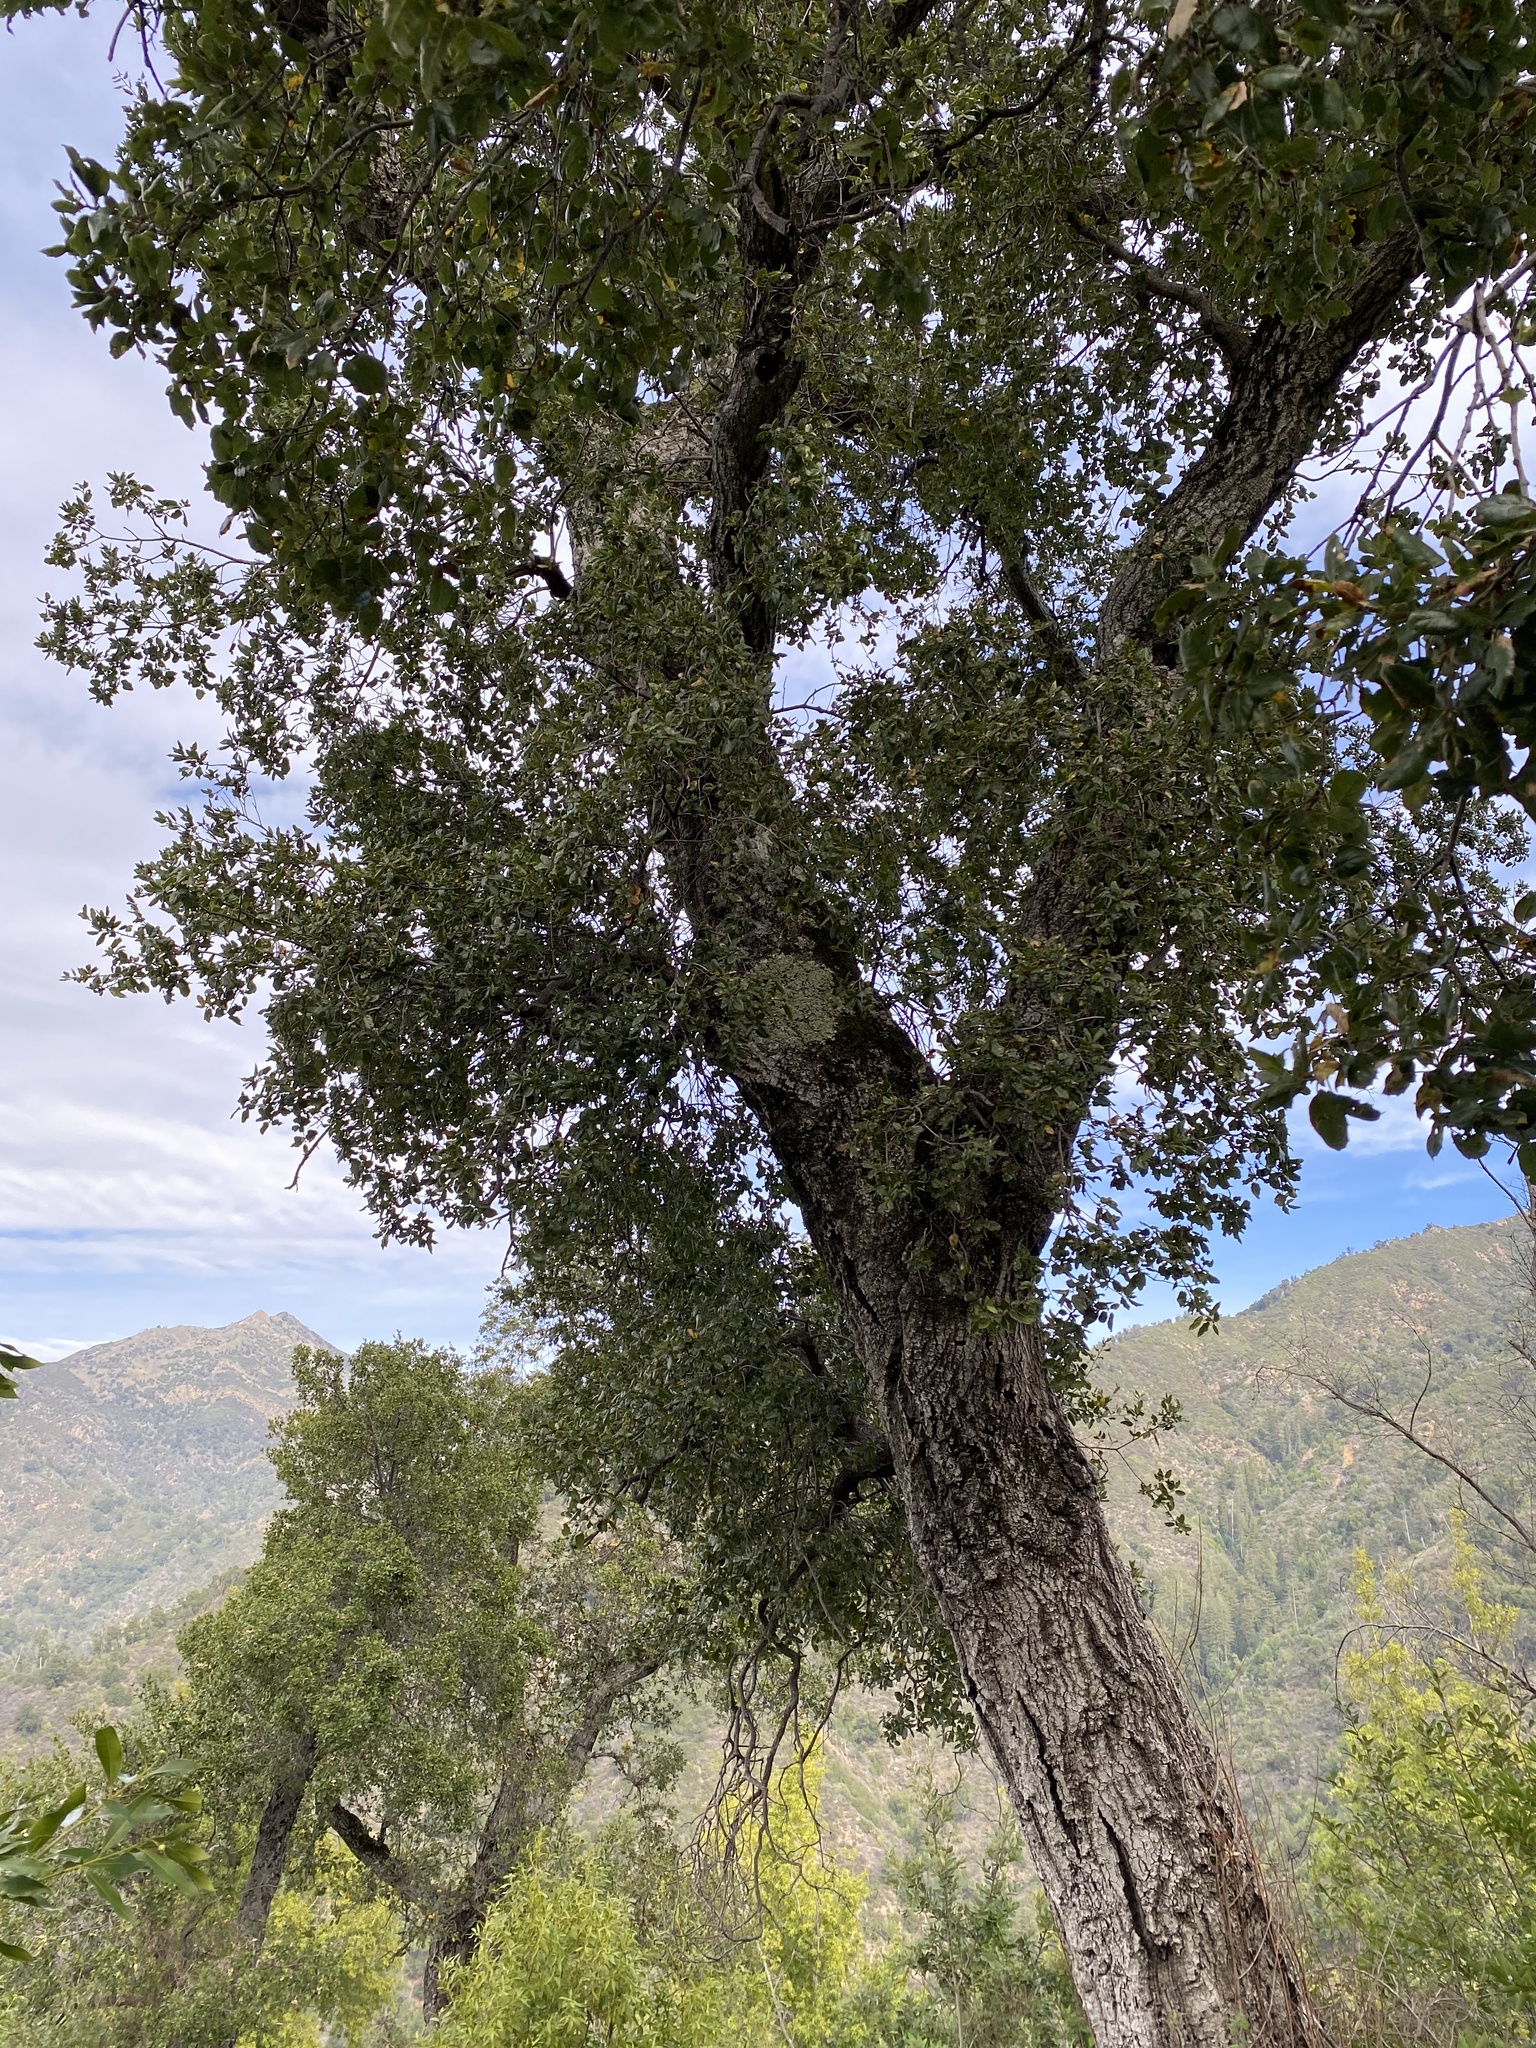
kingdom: Plantae
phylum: Tracheophyta
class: Magnoliopsida
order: Fagales
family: Fagaceae
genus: Quercus
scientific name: Quercus agrifolia
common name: California live oak
